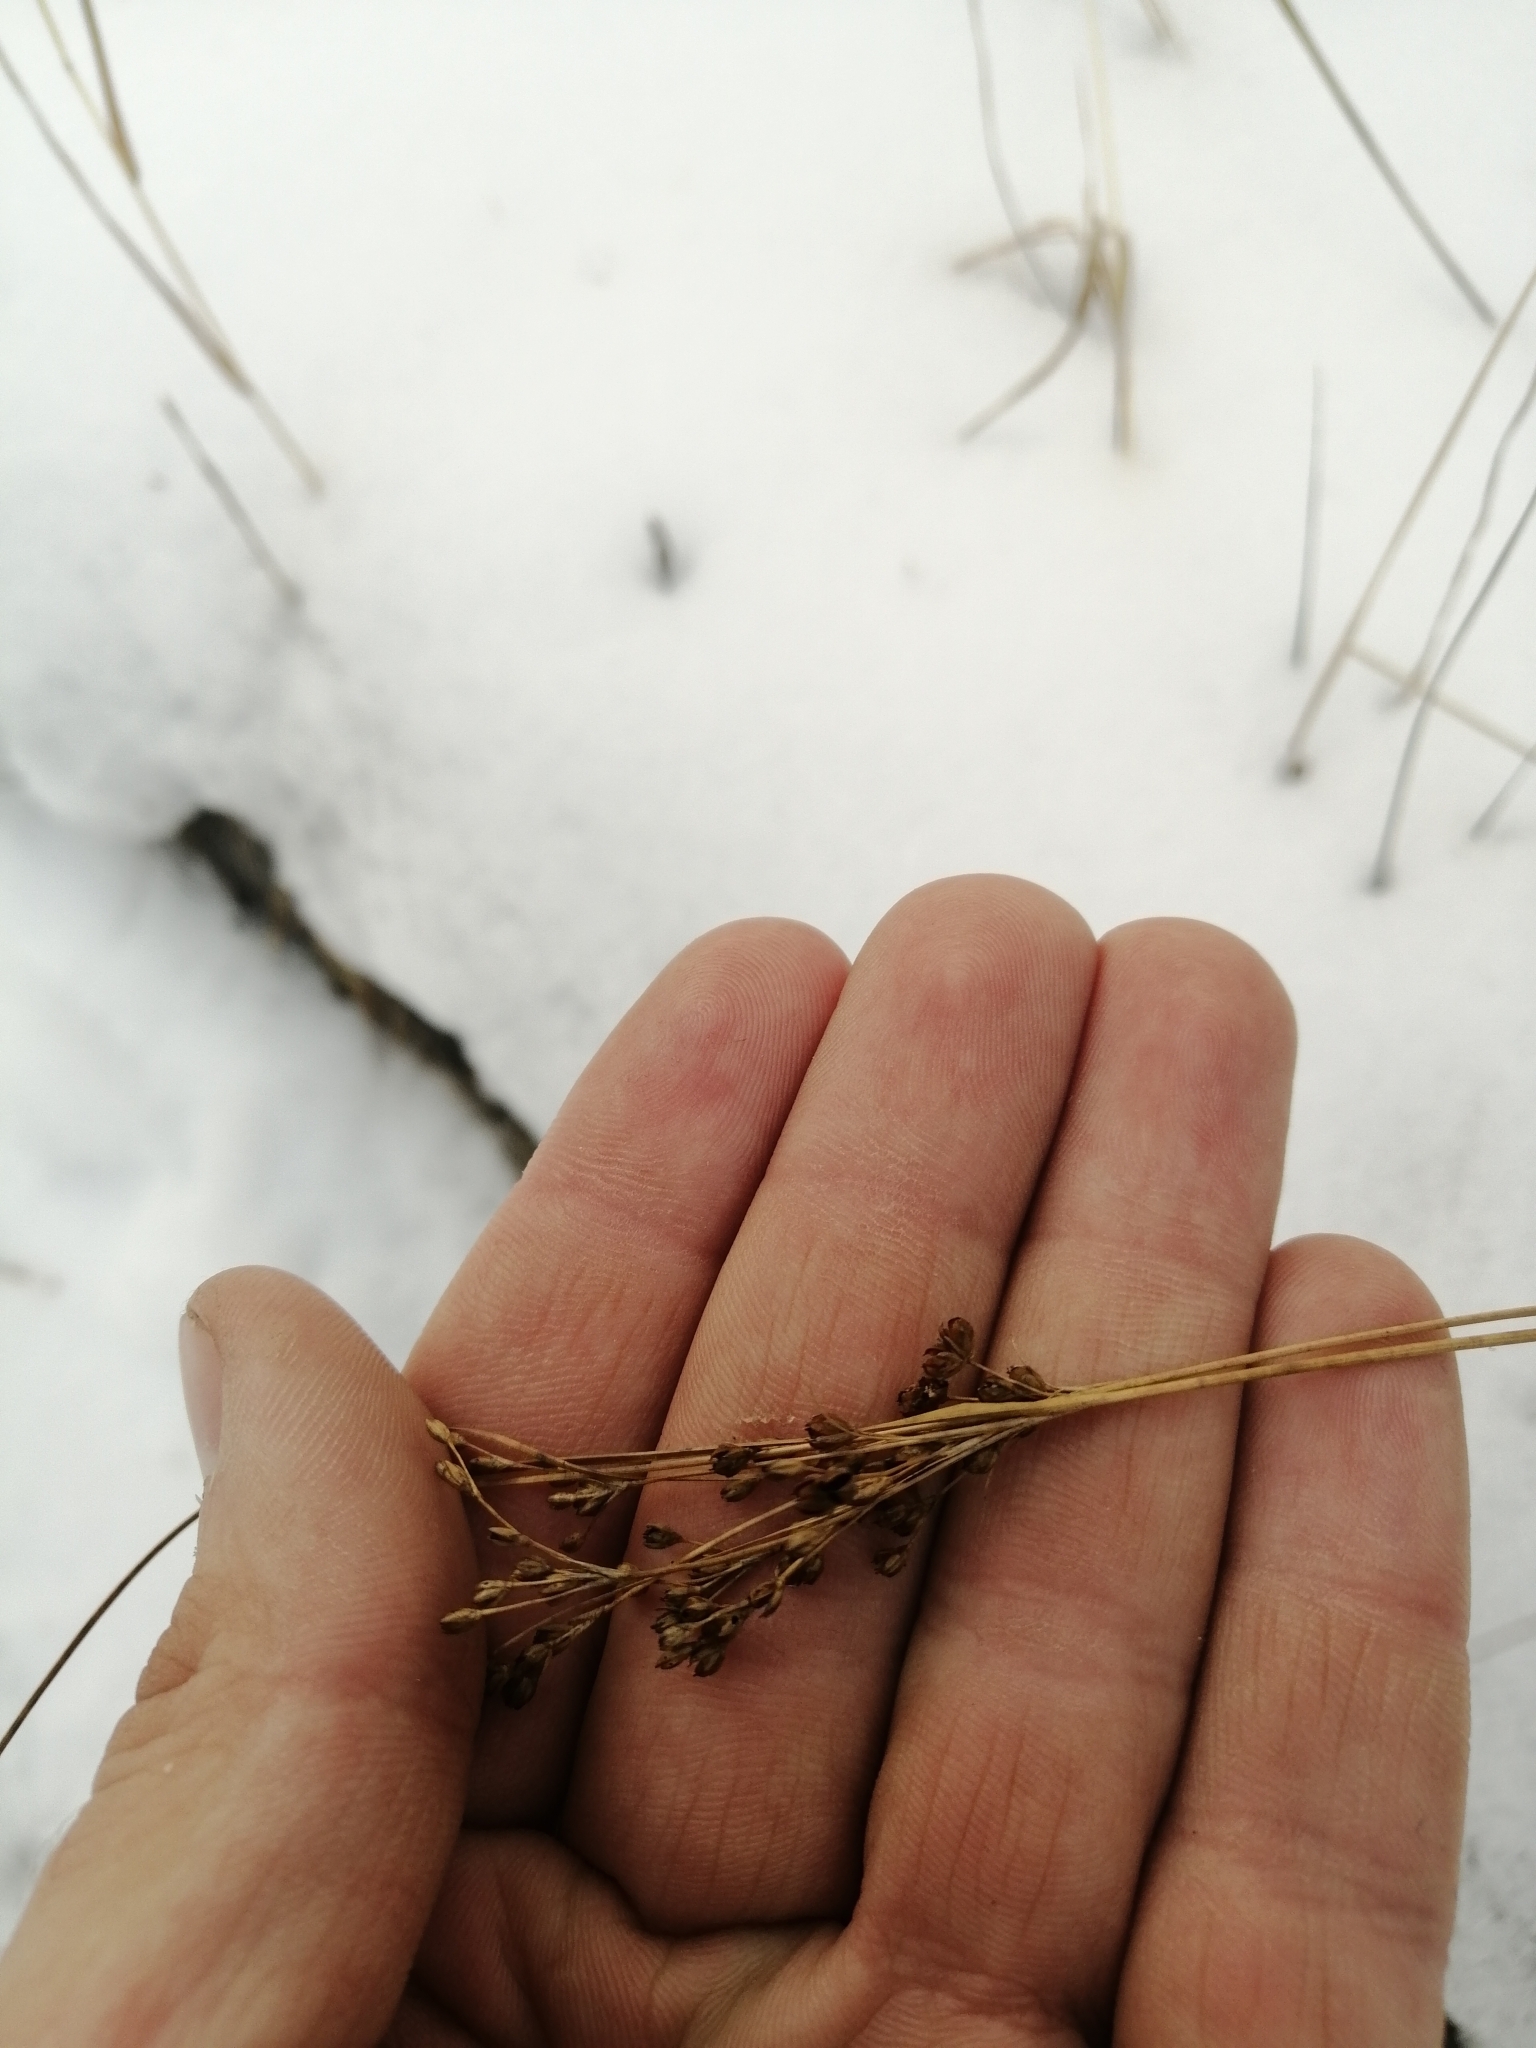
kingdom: Plantae
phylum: Tracheophyta
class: Liliopsida
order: Poales
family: Juncaceae
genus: Juncus
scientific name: Juncus compressus
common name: Round-fruited rush
